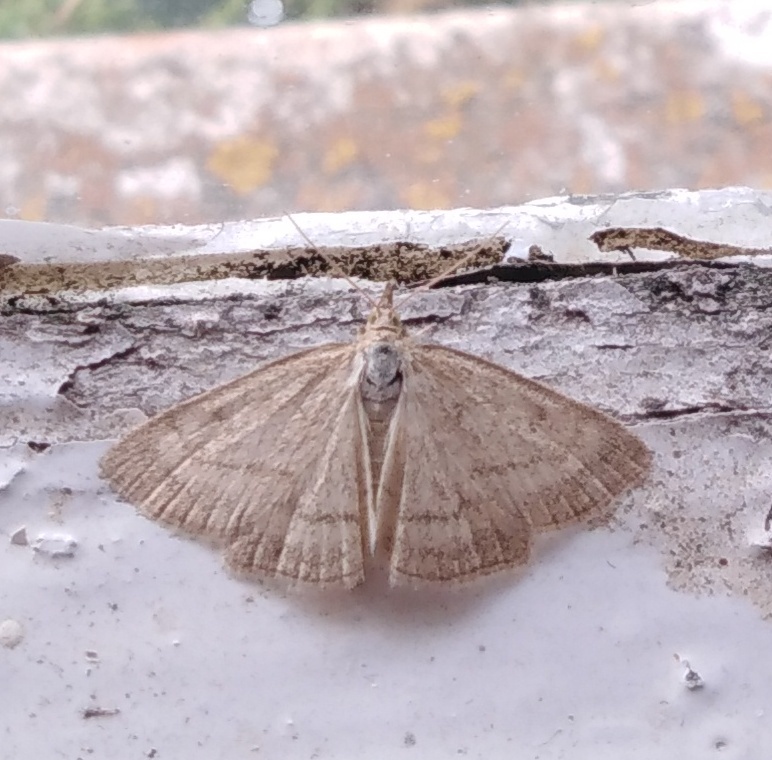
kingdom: Animalia
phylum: Arthropoda
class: Insecta
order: Lepidoptera
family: Crambidae
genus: Psammotis
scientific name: Psammotis viminalis
